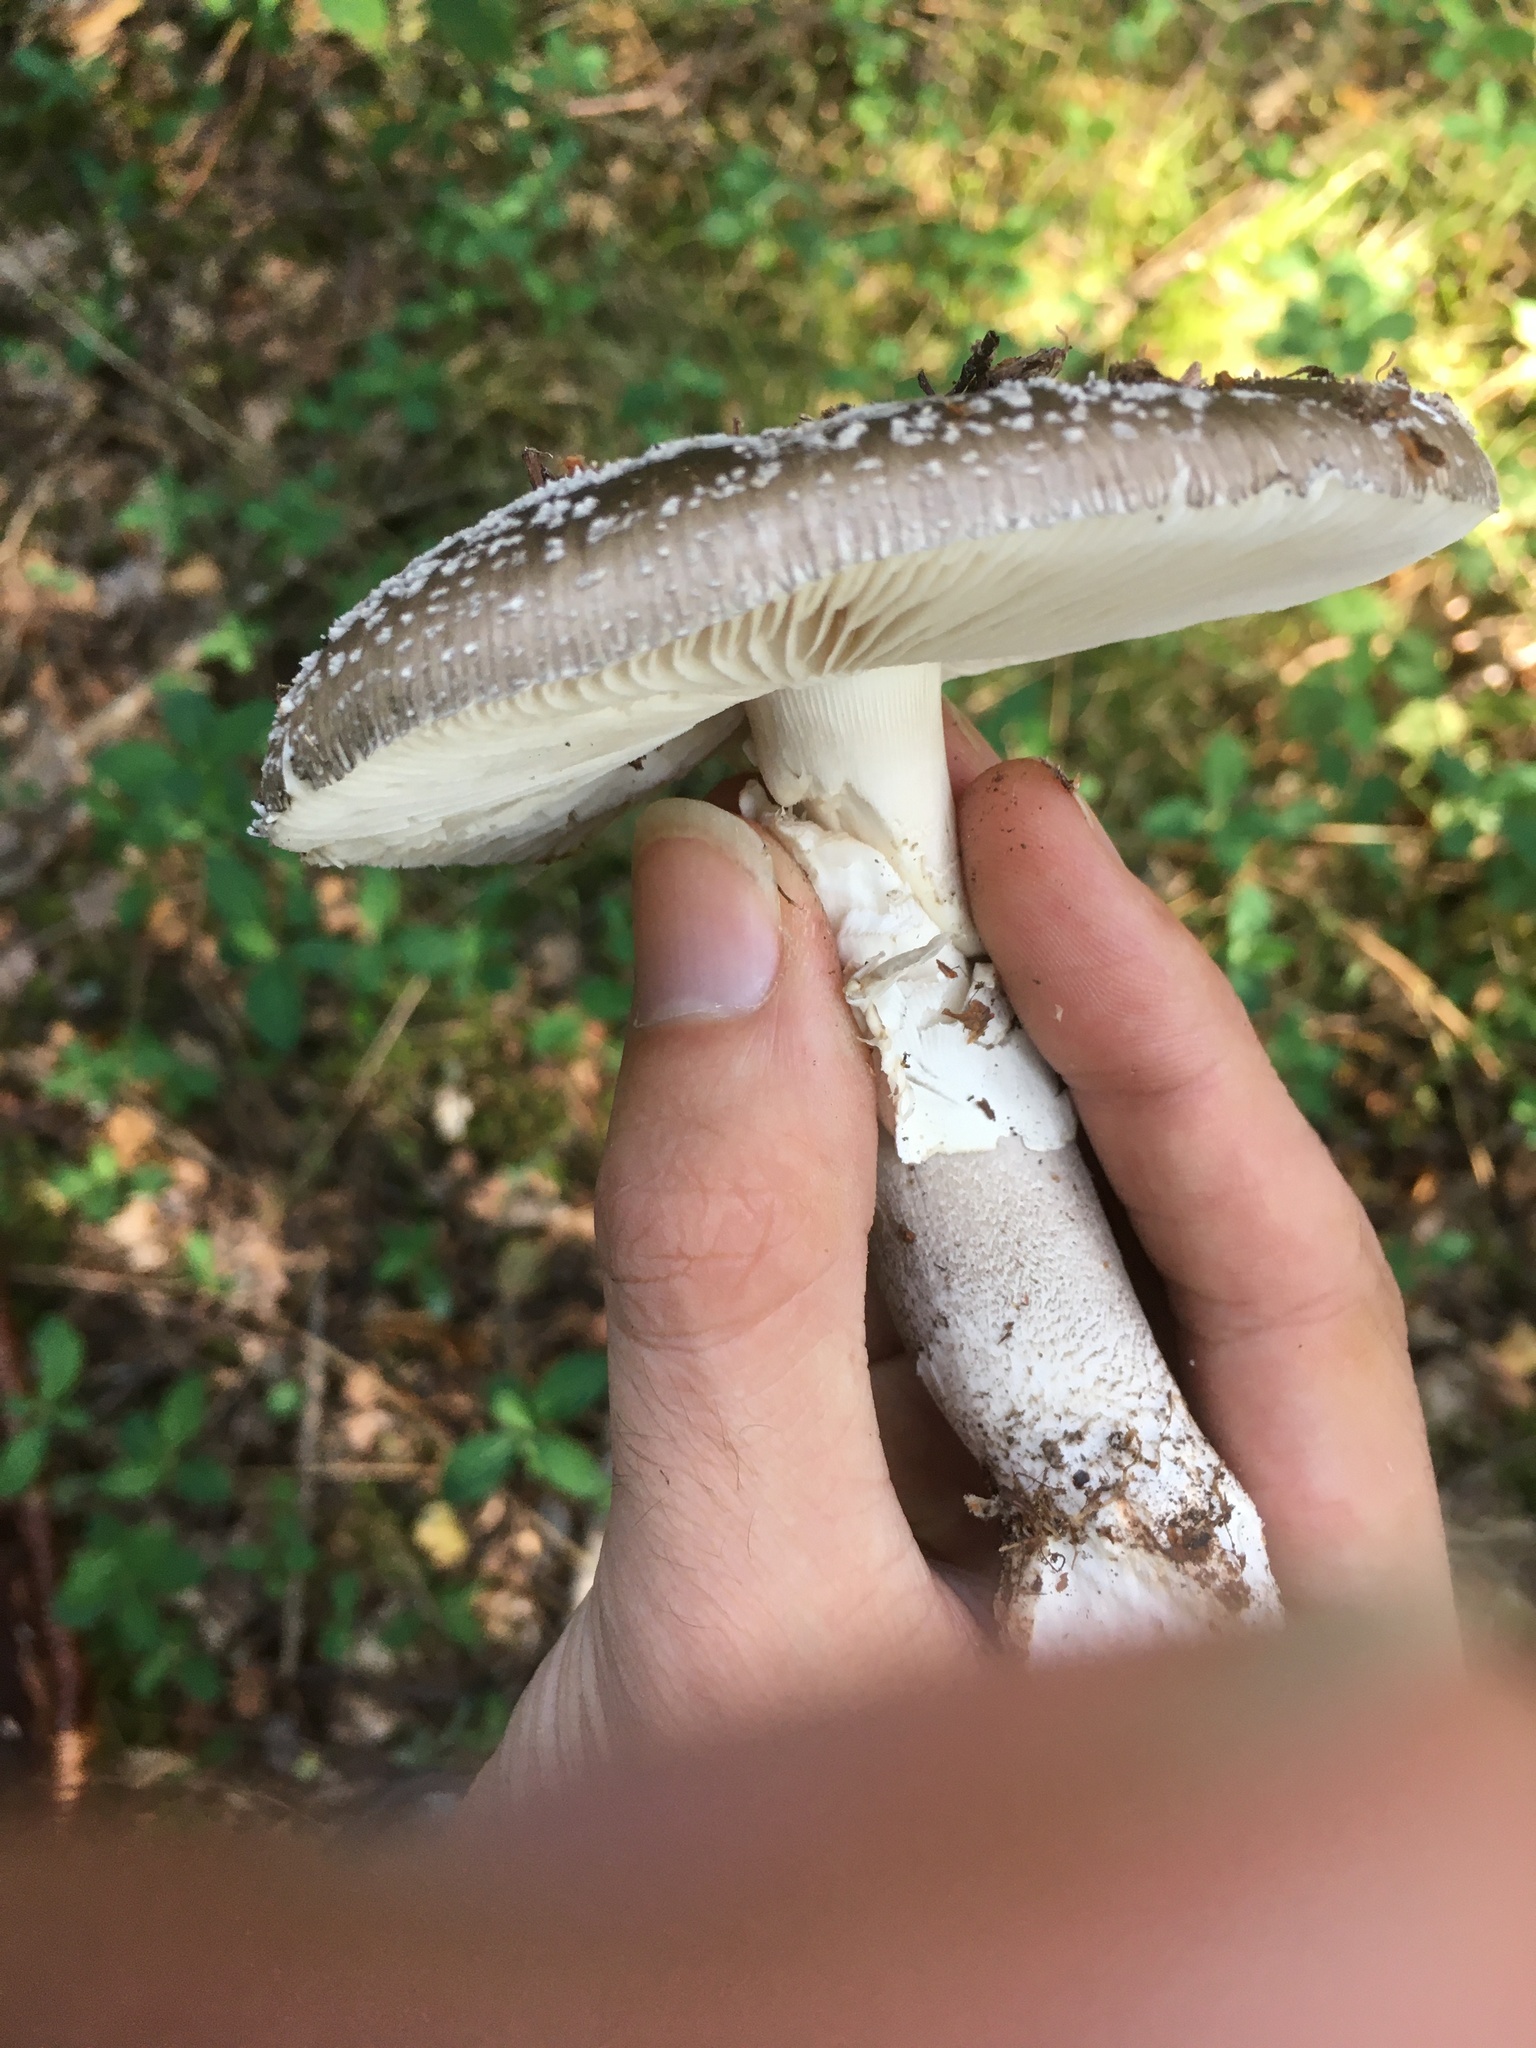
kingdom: Fungi
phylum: Basidiomycota
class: Agaricomycetes
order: Agaricales
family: Amanitaceae
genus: Amanita
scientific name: Amanita excelsa
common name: European false blusher
